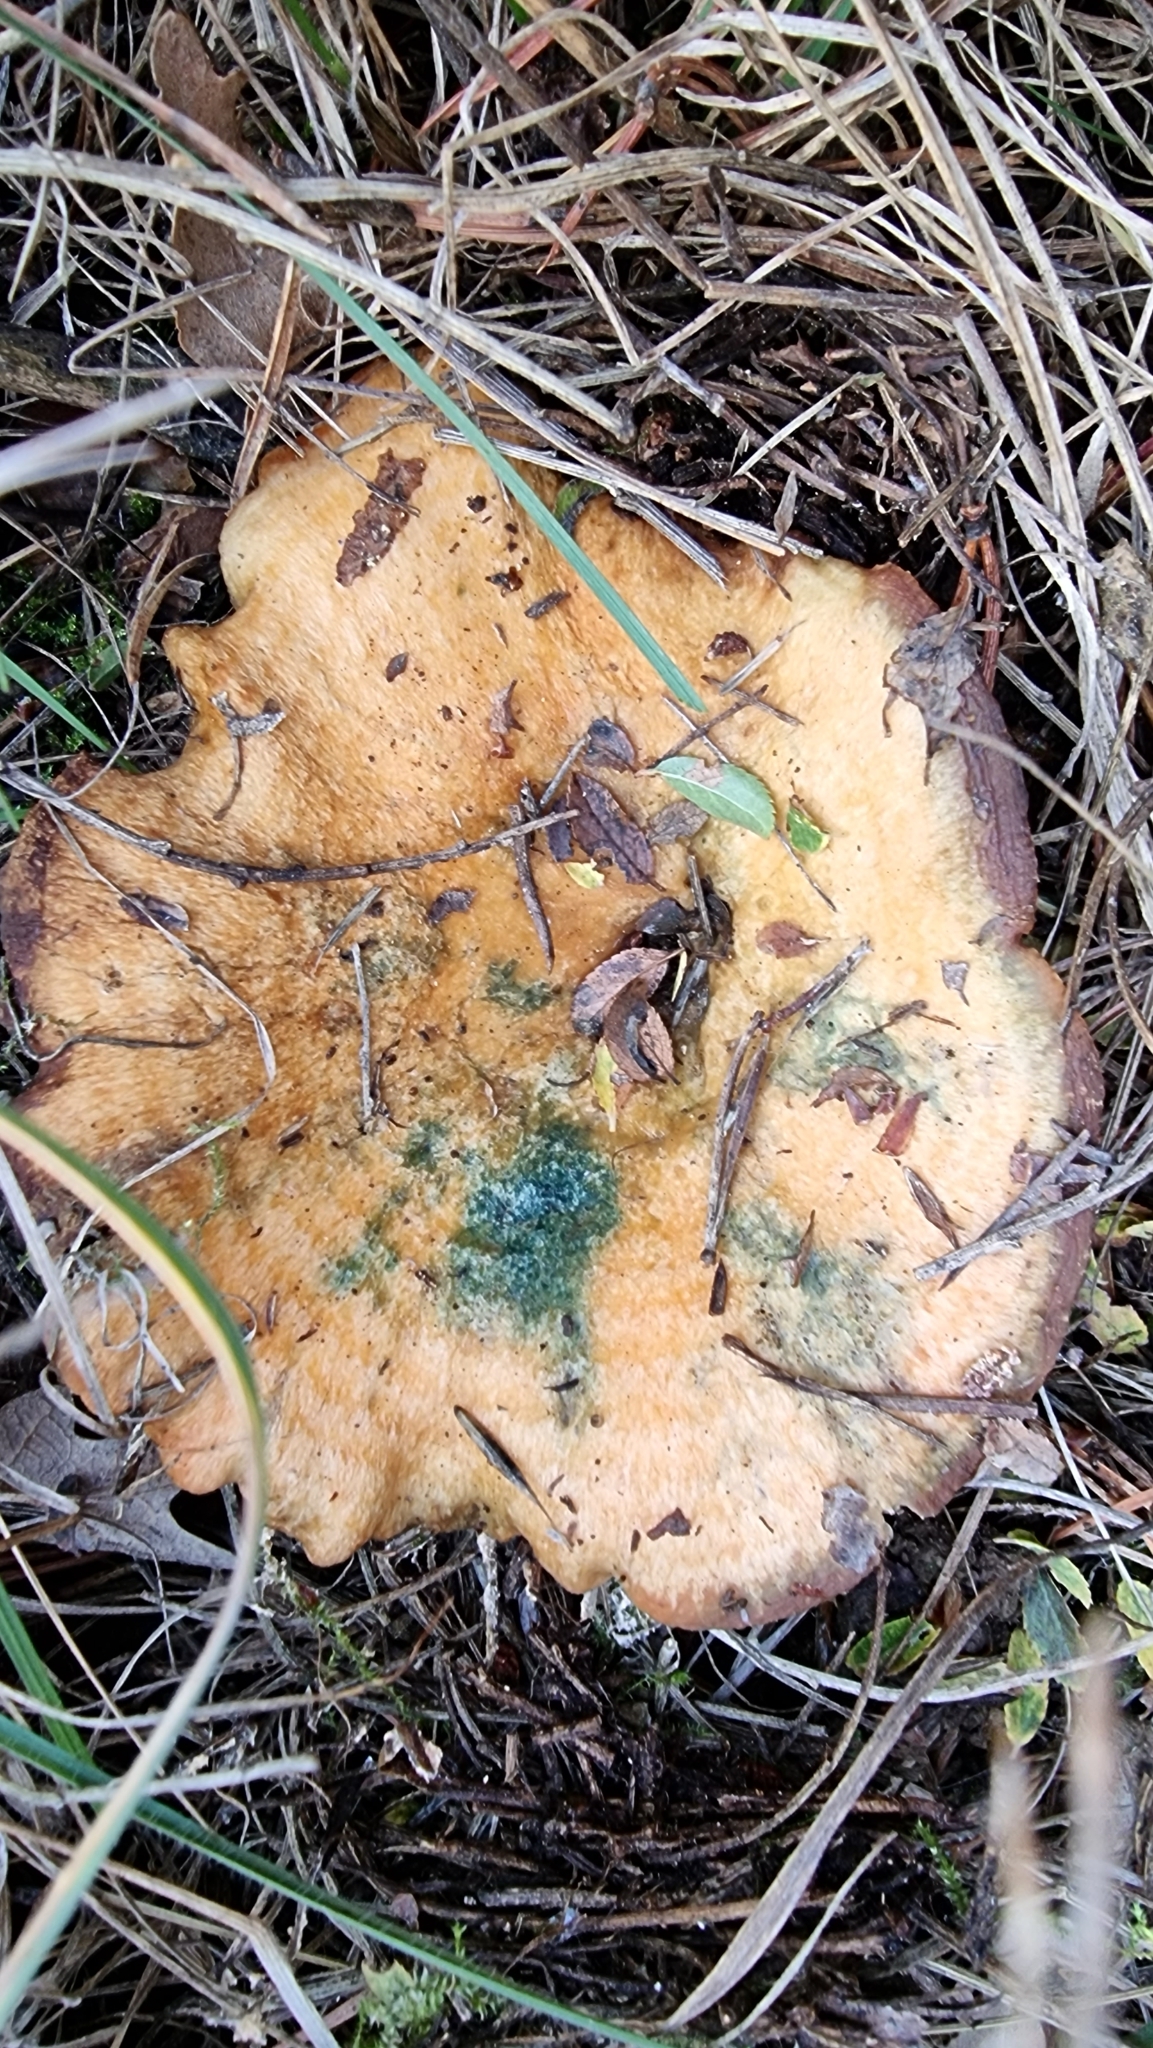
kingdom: Fungi
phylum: Basidiomycota
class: Agaricomycetes
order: Russulales
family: Russulaceae
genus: Lactarius
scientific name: Lactarius sanguifluus
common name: Bloody milkcap
